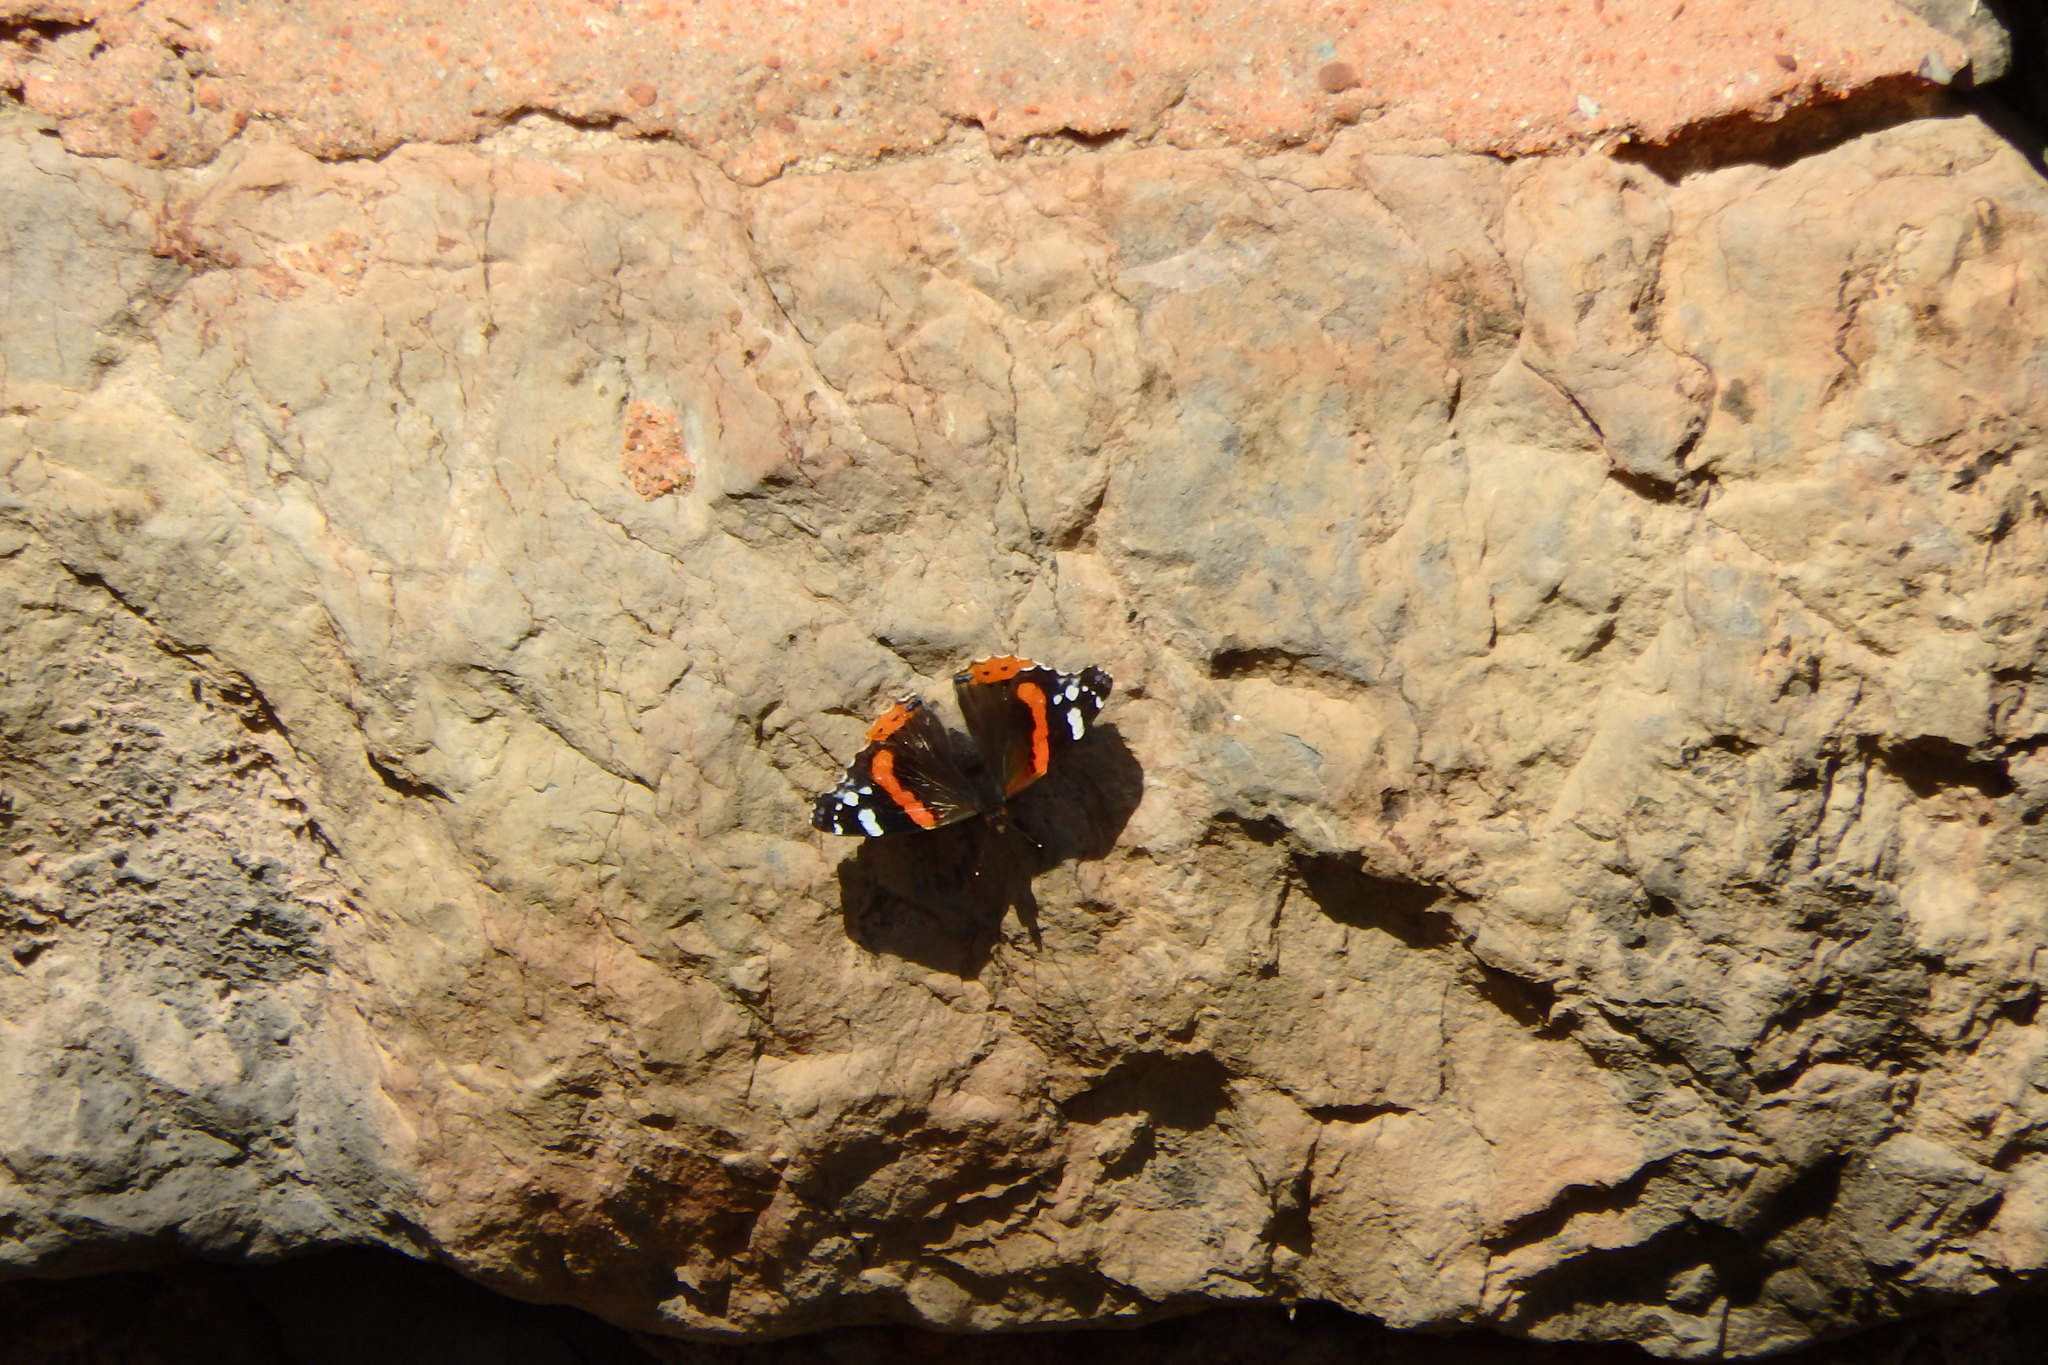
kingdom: Animalia
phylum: Arthropoda
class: Insecta
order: Lepidoptera
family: Nymphalidae
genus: Vanessa
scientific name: Vanessa atalanta
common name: Red admiral
